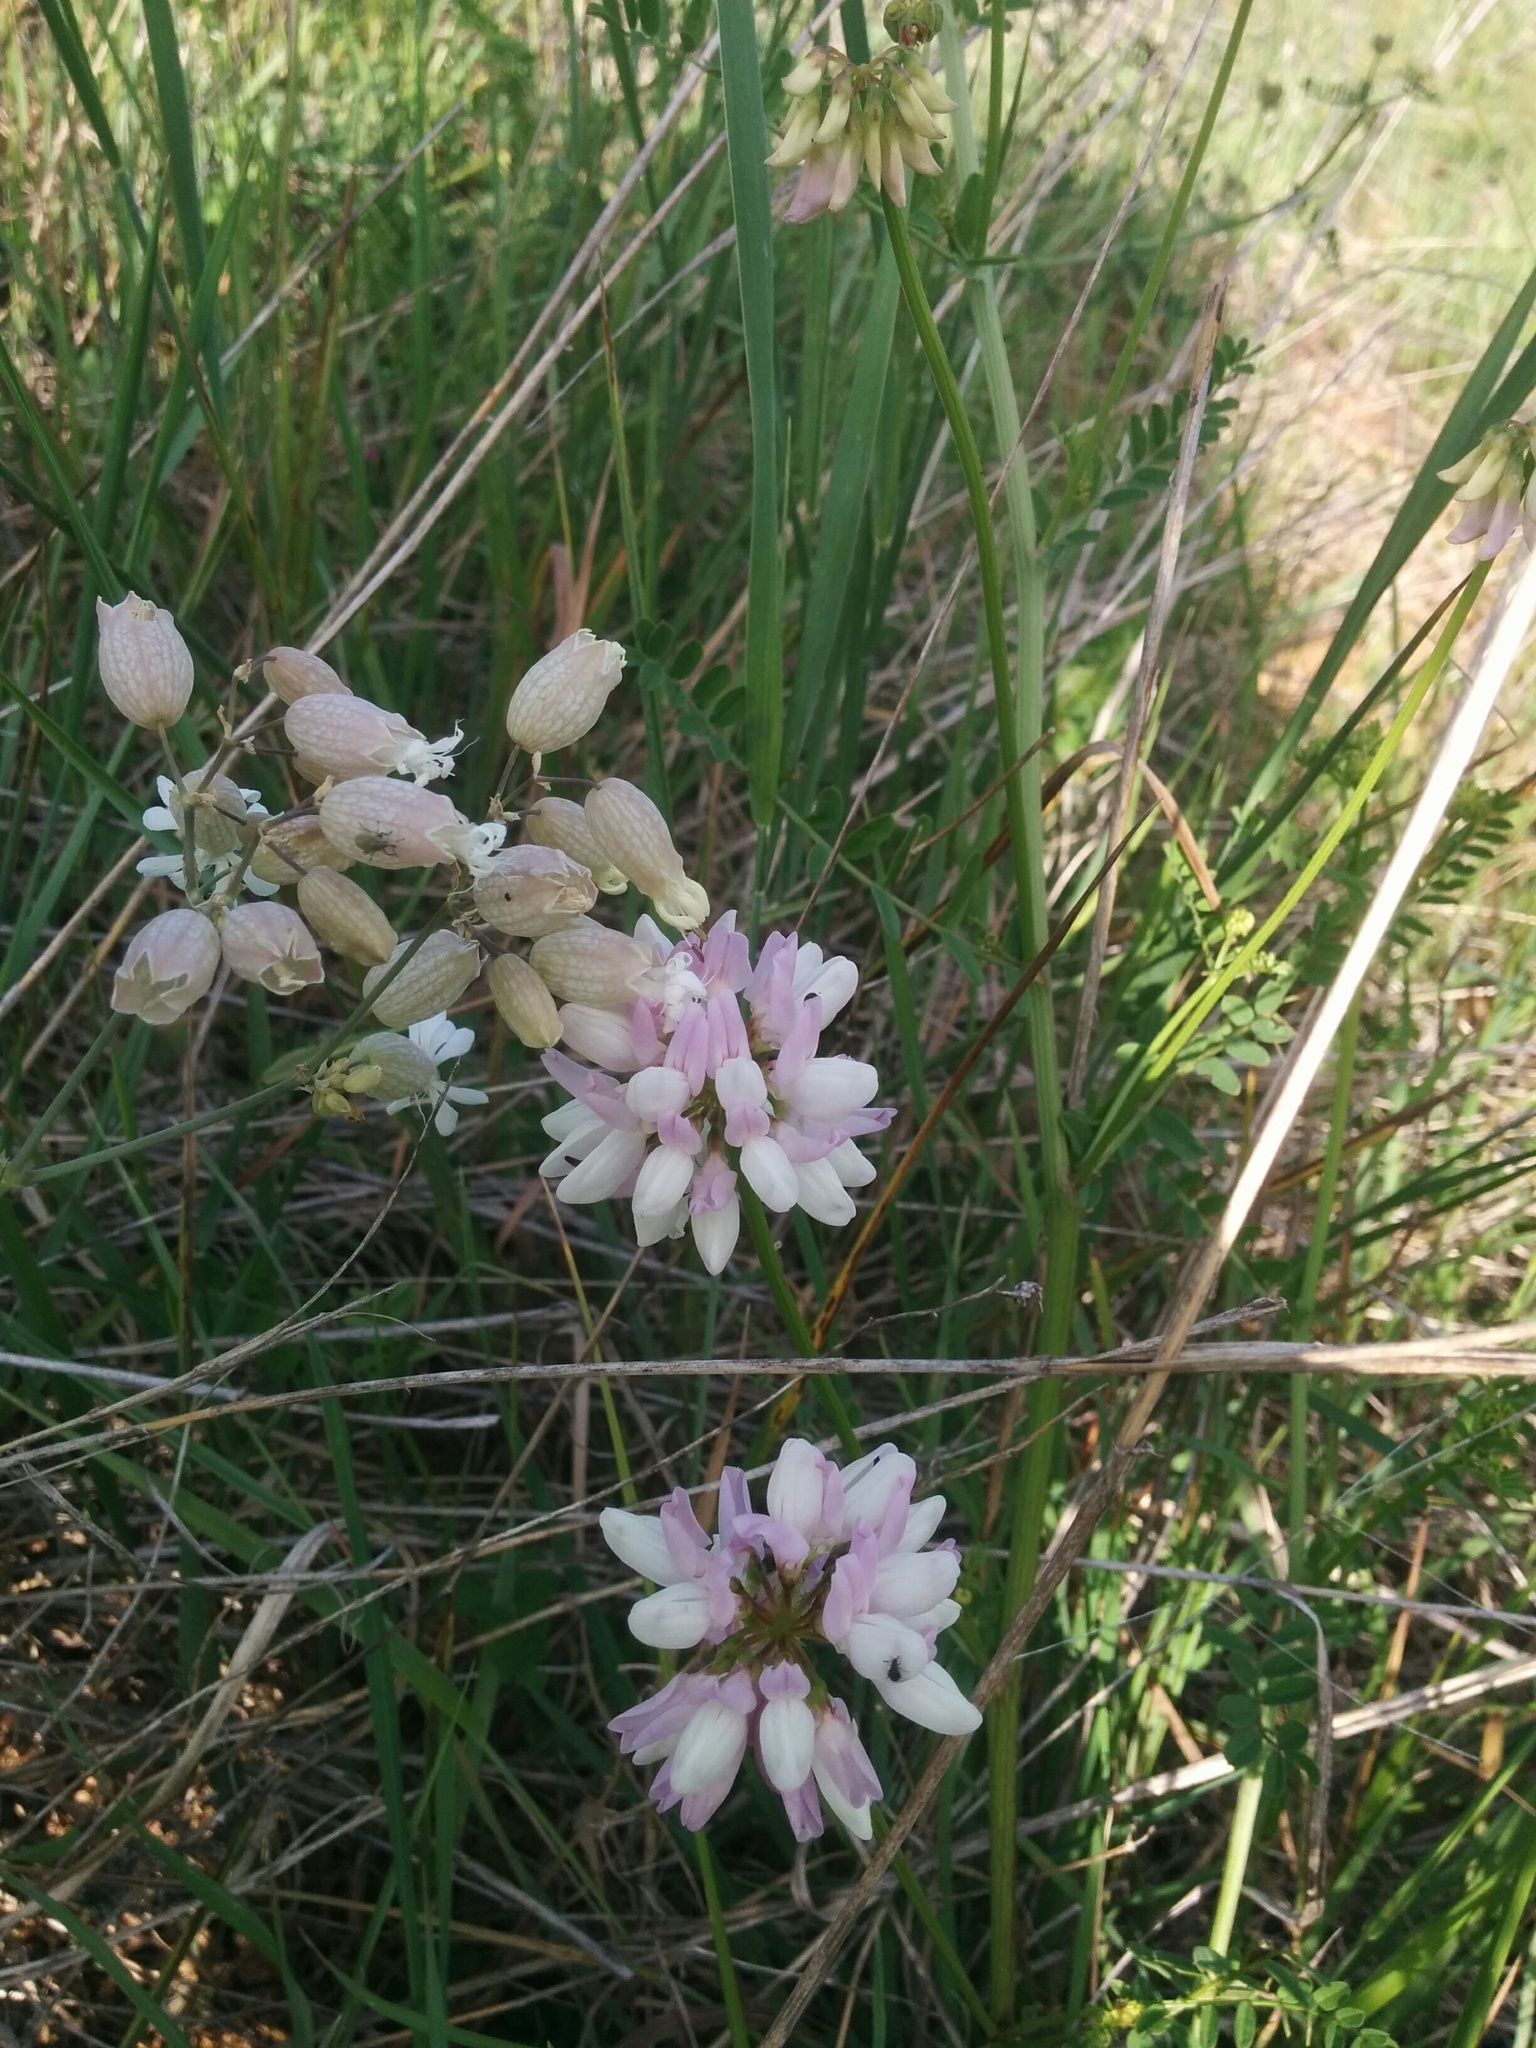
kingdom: Plantae
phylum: Tracheophyta
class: Magnoliopsida
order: Fabales
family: Fabaceae
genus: Coronilla
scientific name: Coronilla varia
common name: Crownvetch
